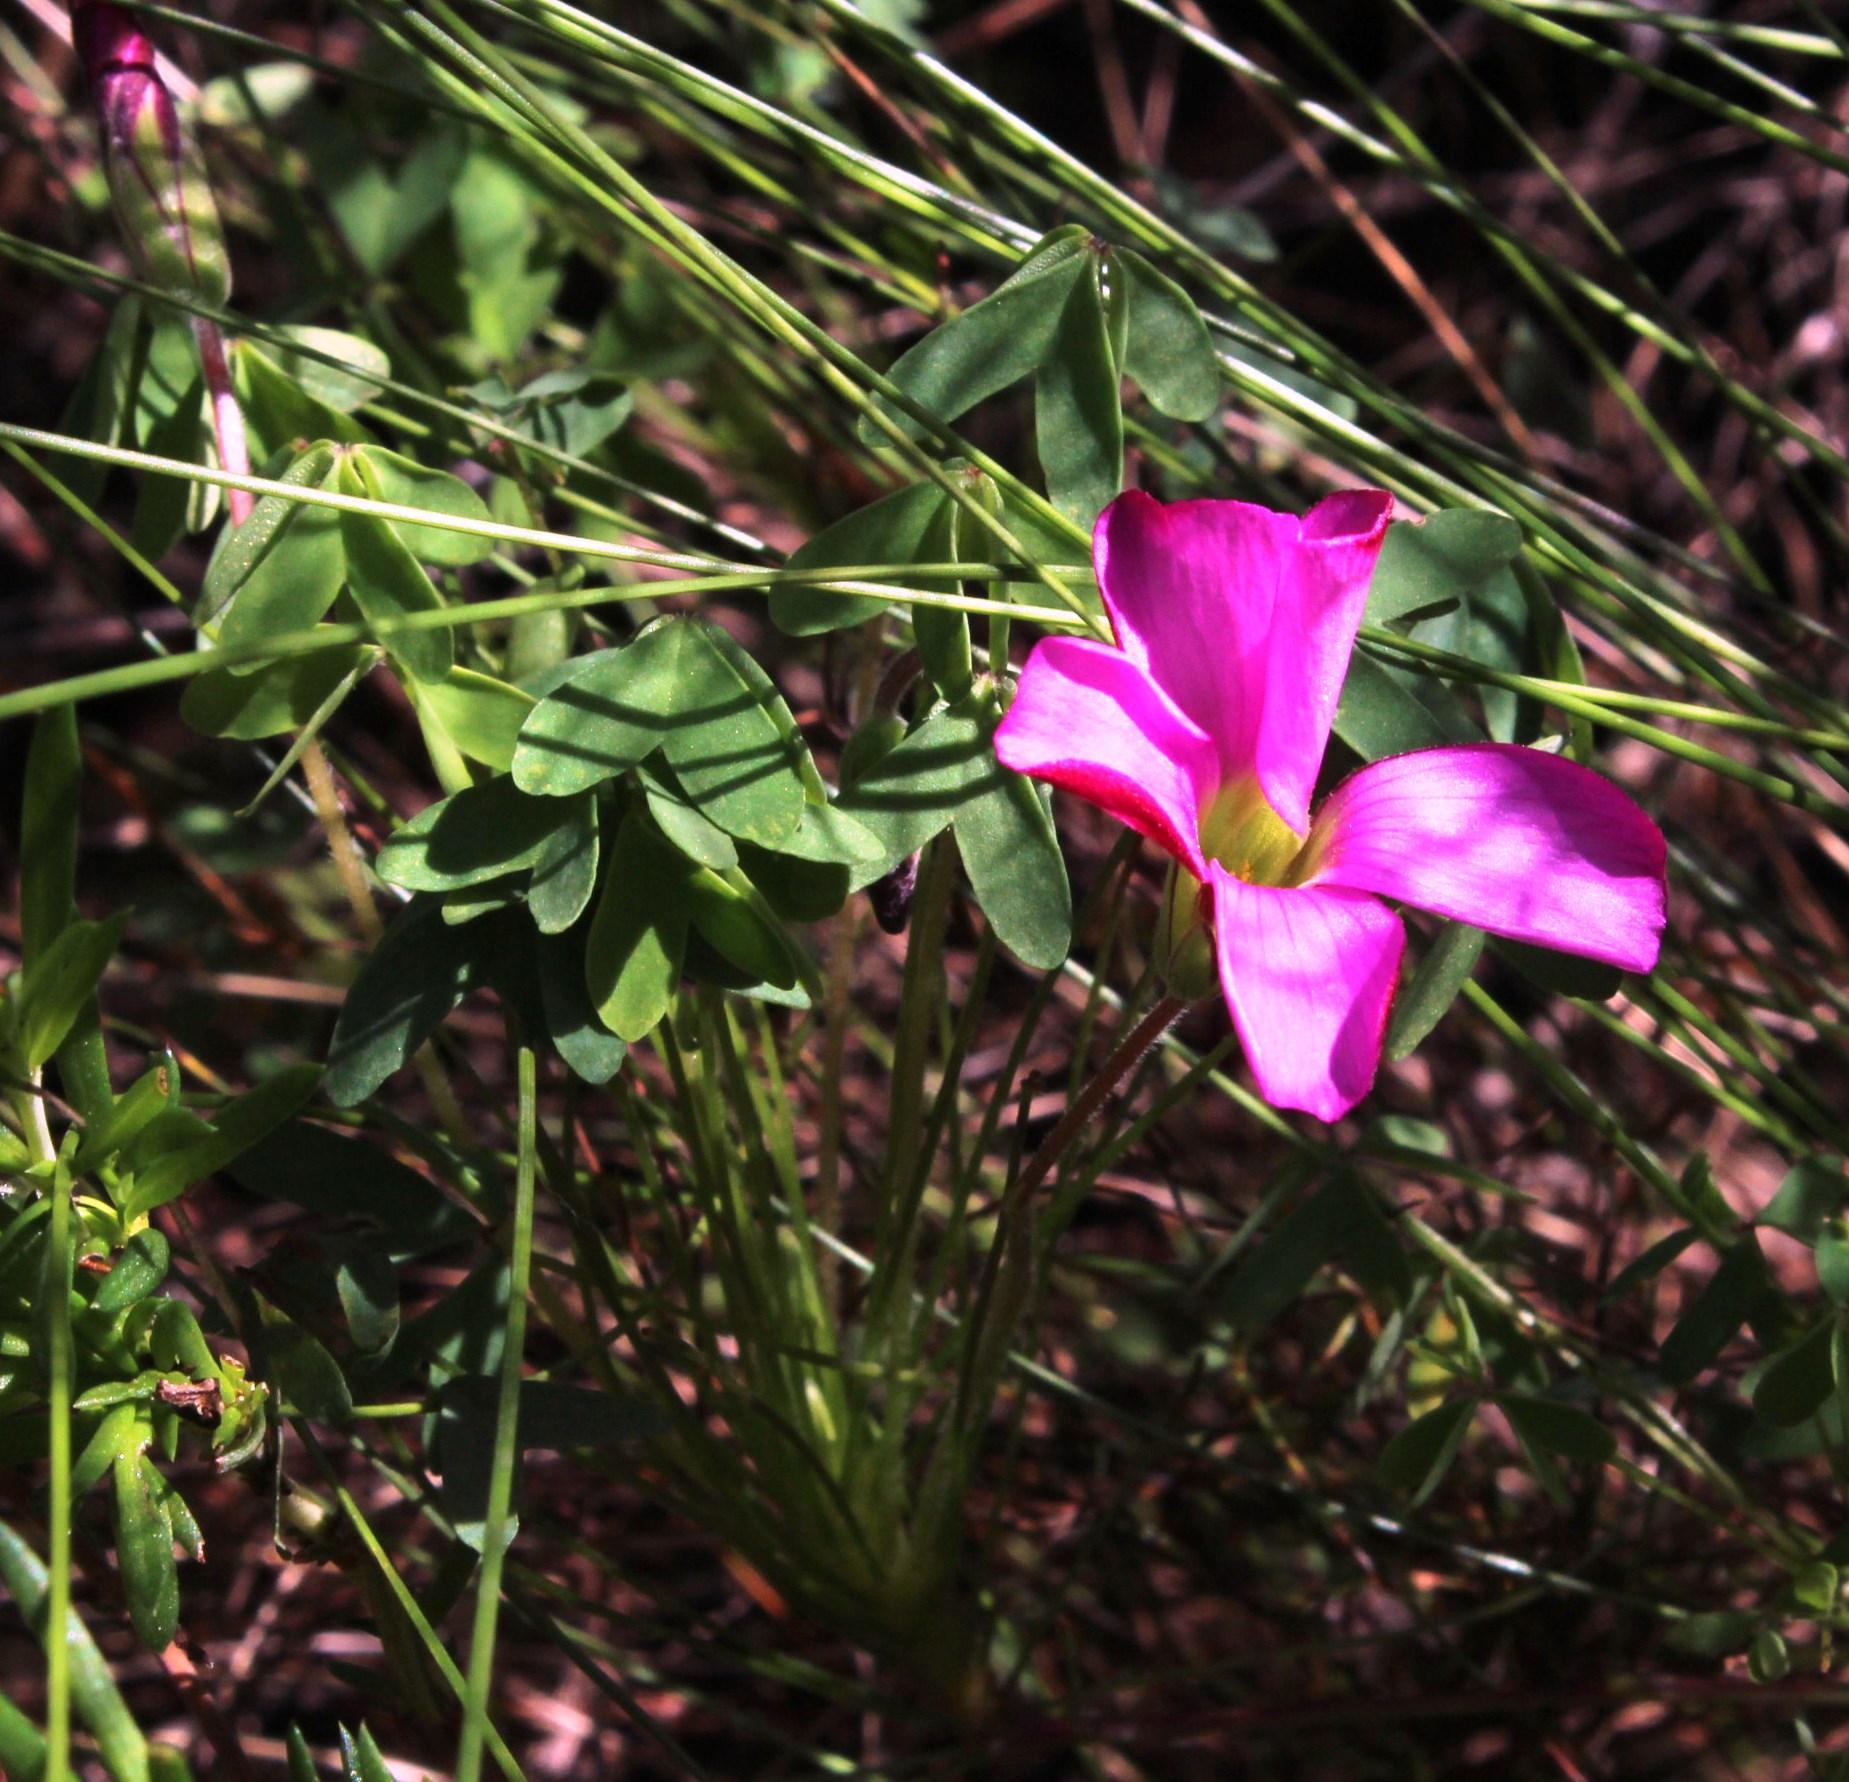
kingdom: Plantae
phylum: Tracheophyta
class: Magnoliopsida
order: Oxalidales
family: Oxalidaceae
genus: Oxalis
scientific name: Oxalis heterophylla
